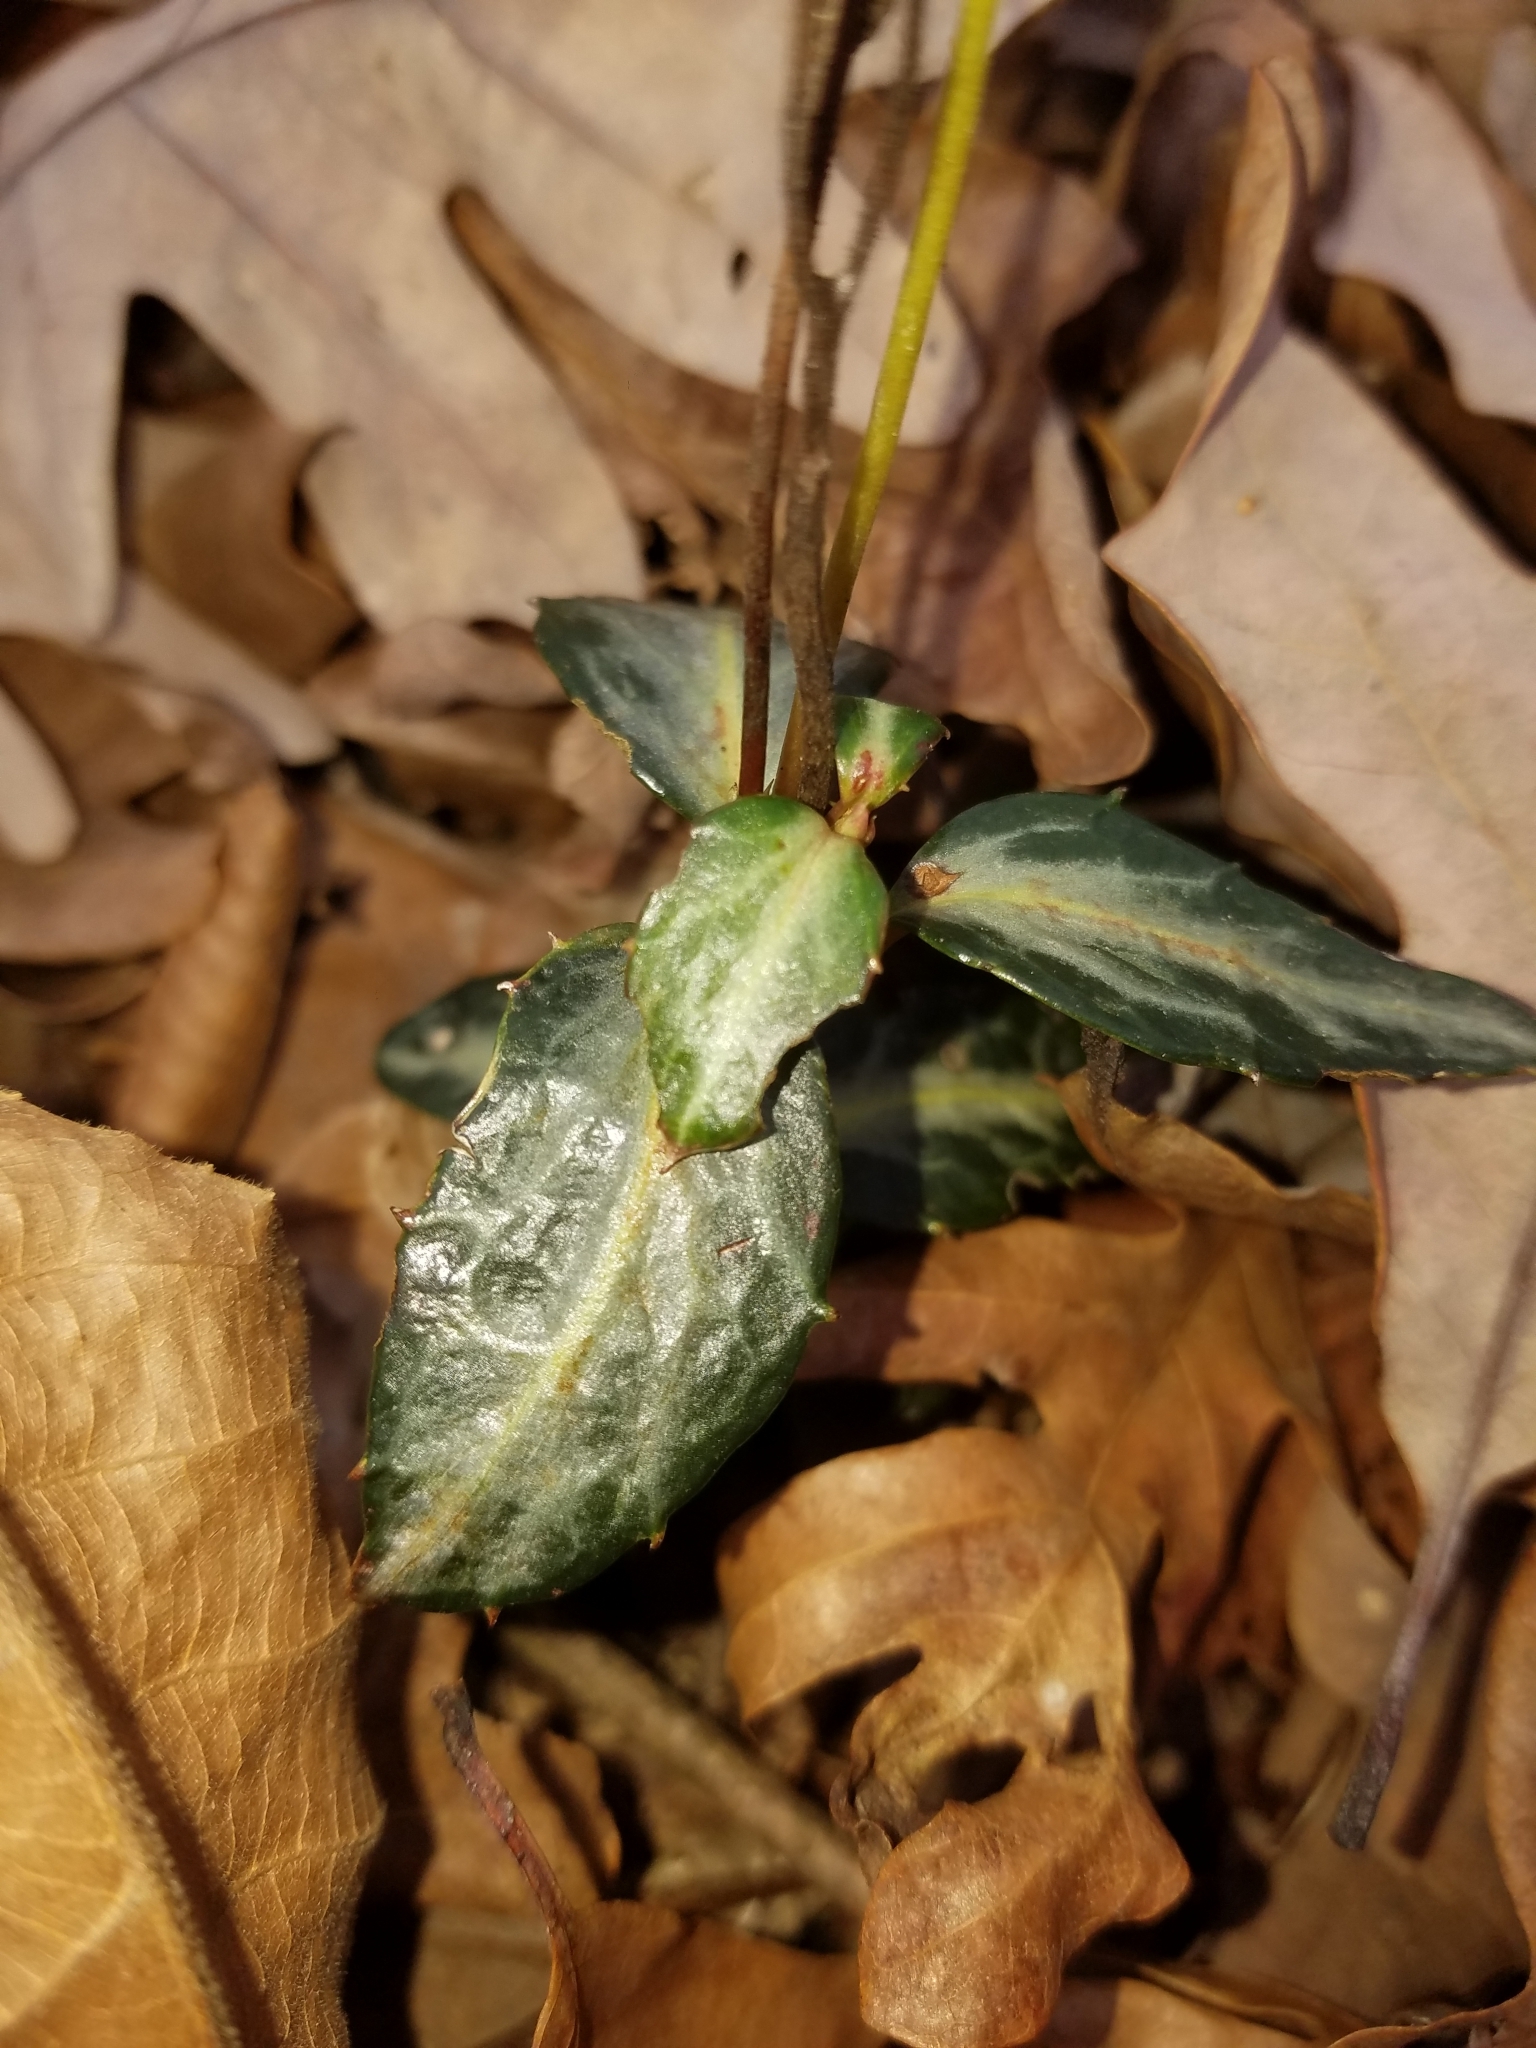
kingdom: Plantae
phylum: Tracheophyta
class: Magnoliopsida
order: Ericales
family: Ericaceae
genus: Chimaphila
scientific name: Chimaphila maculata
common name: Spotted pipsissewa
